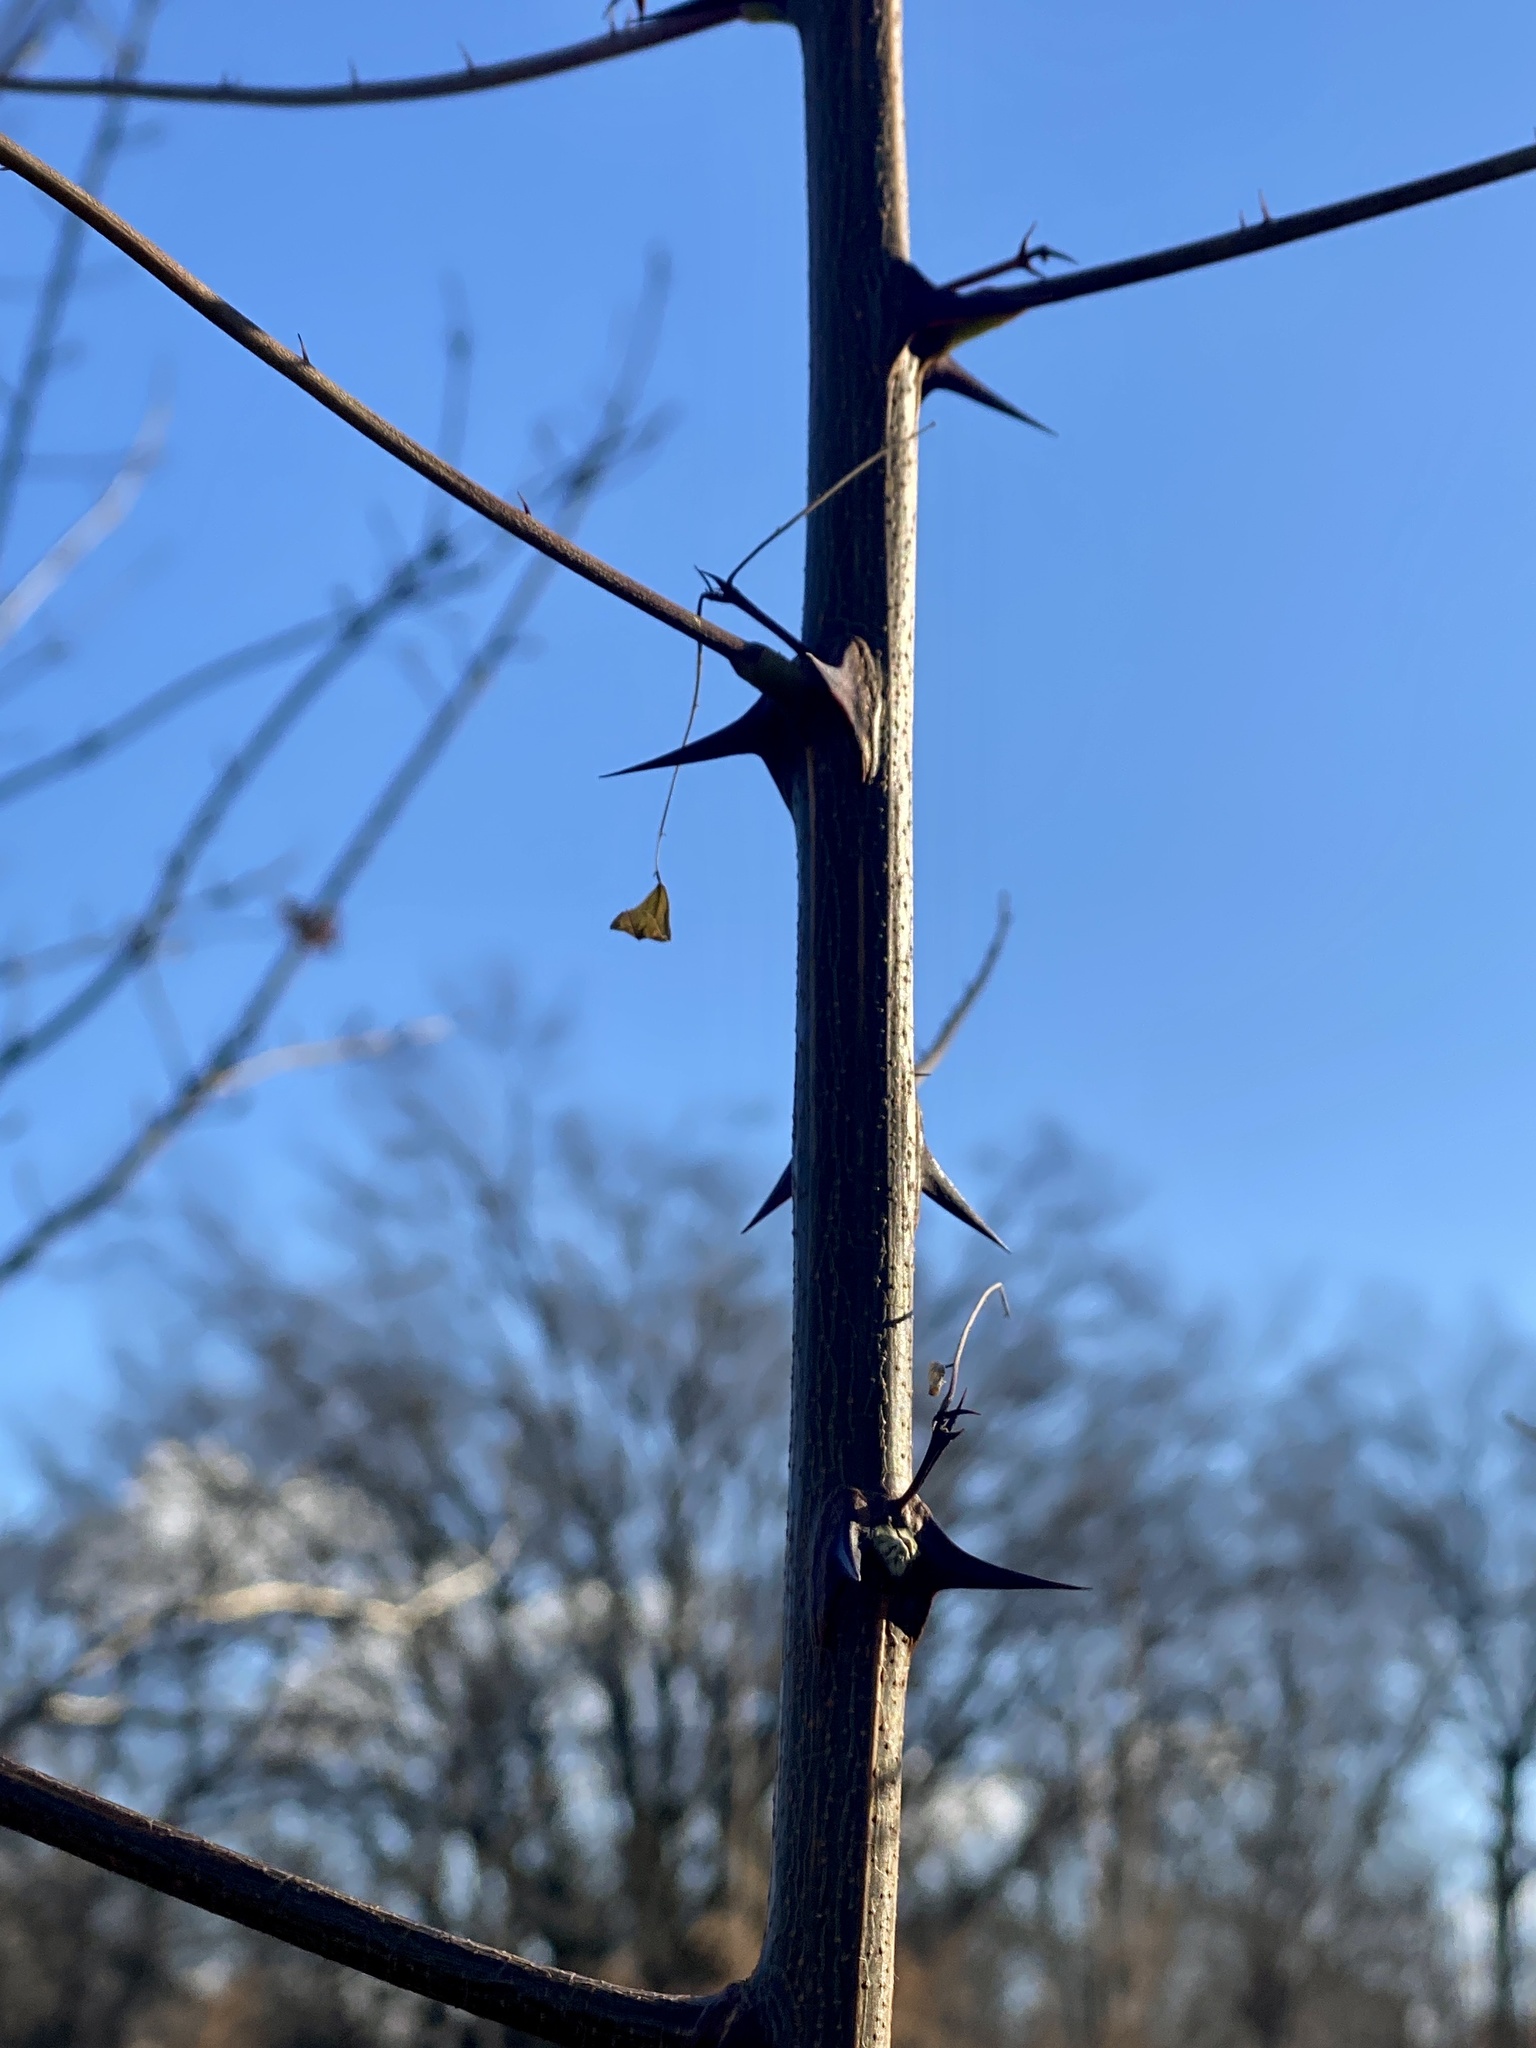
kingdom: Plantae
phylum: Tracheophyta
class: Magnoliopsida
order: Fabales
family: Fabaceae
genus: Robinia
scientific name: Robinia pseudoacacia
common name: Black locust
